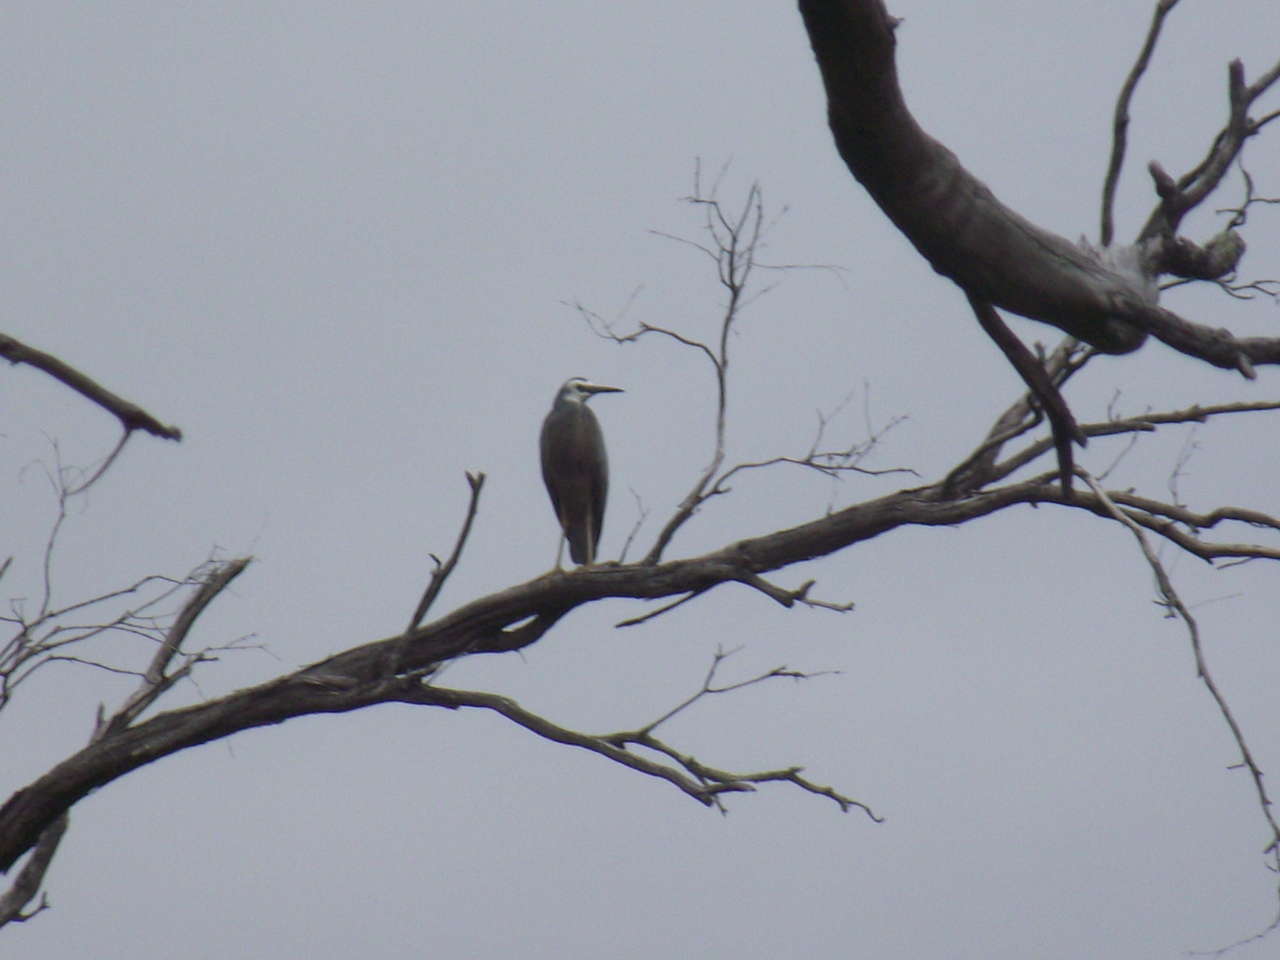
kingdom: Animalia
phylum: Chordata
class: Aves
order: Pelecaniformes
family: Ardeidae
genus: Egretta
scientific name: Egretta novaehollandiae
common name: White-faced heron
